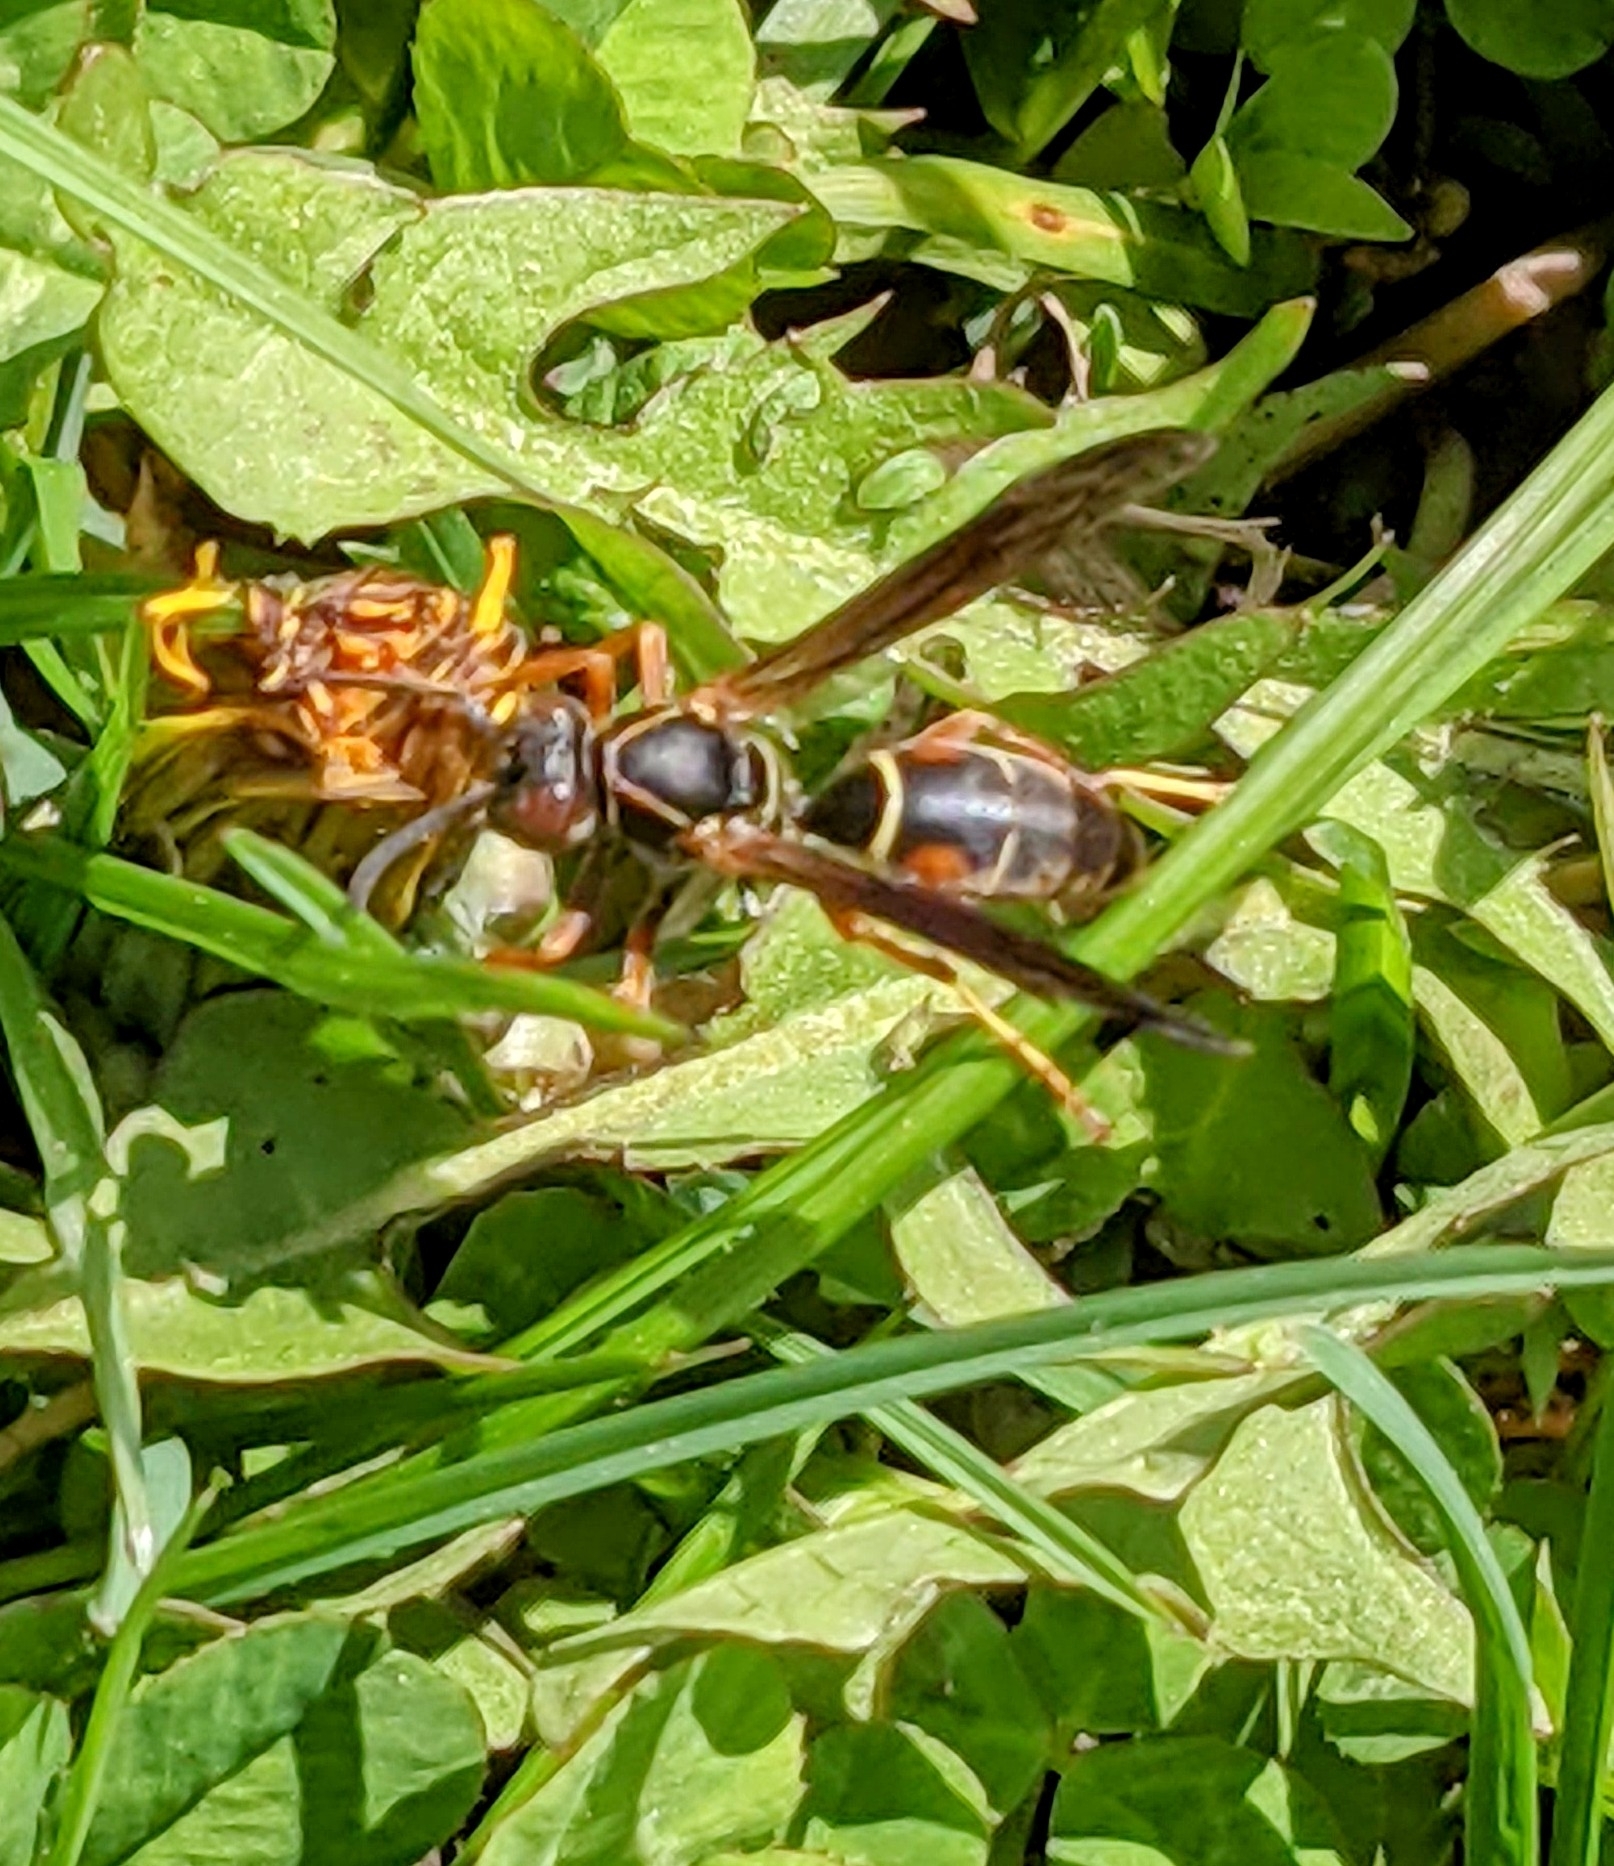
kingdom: Animalia
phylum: Arthropoda
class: Insecta
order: Hymenoptera
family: Eumenidae
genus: Polistes
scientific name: Polistes fuscatus
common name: Dark paper wasp
